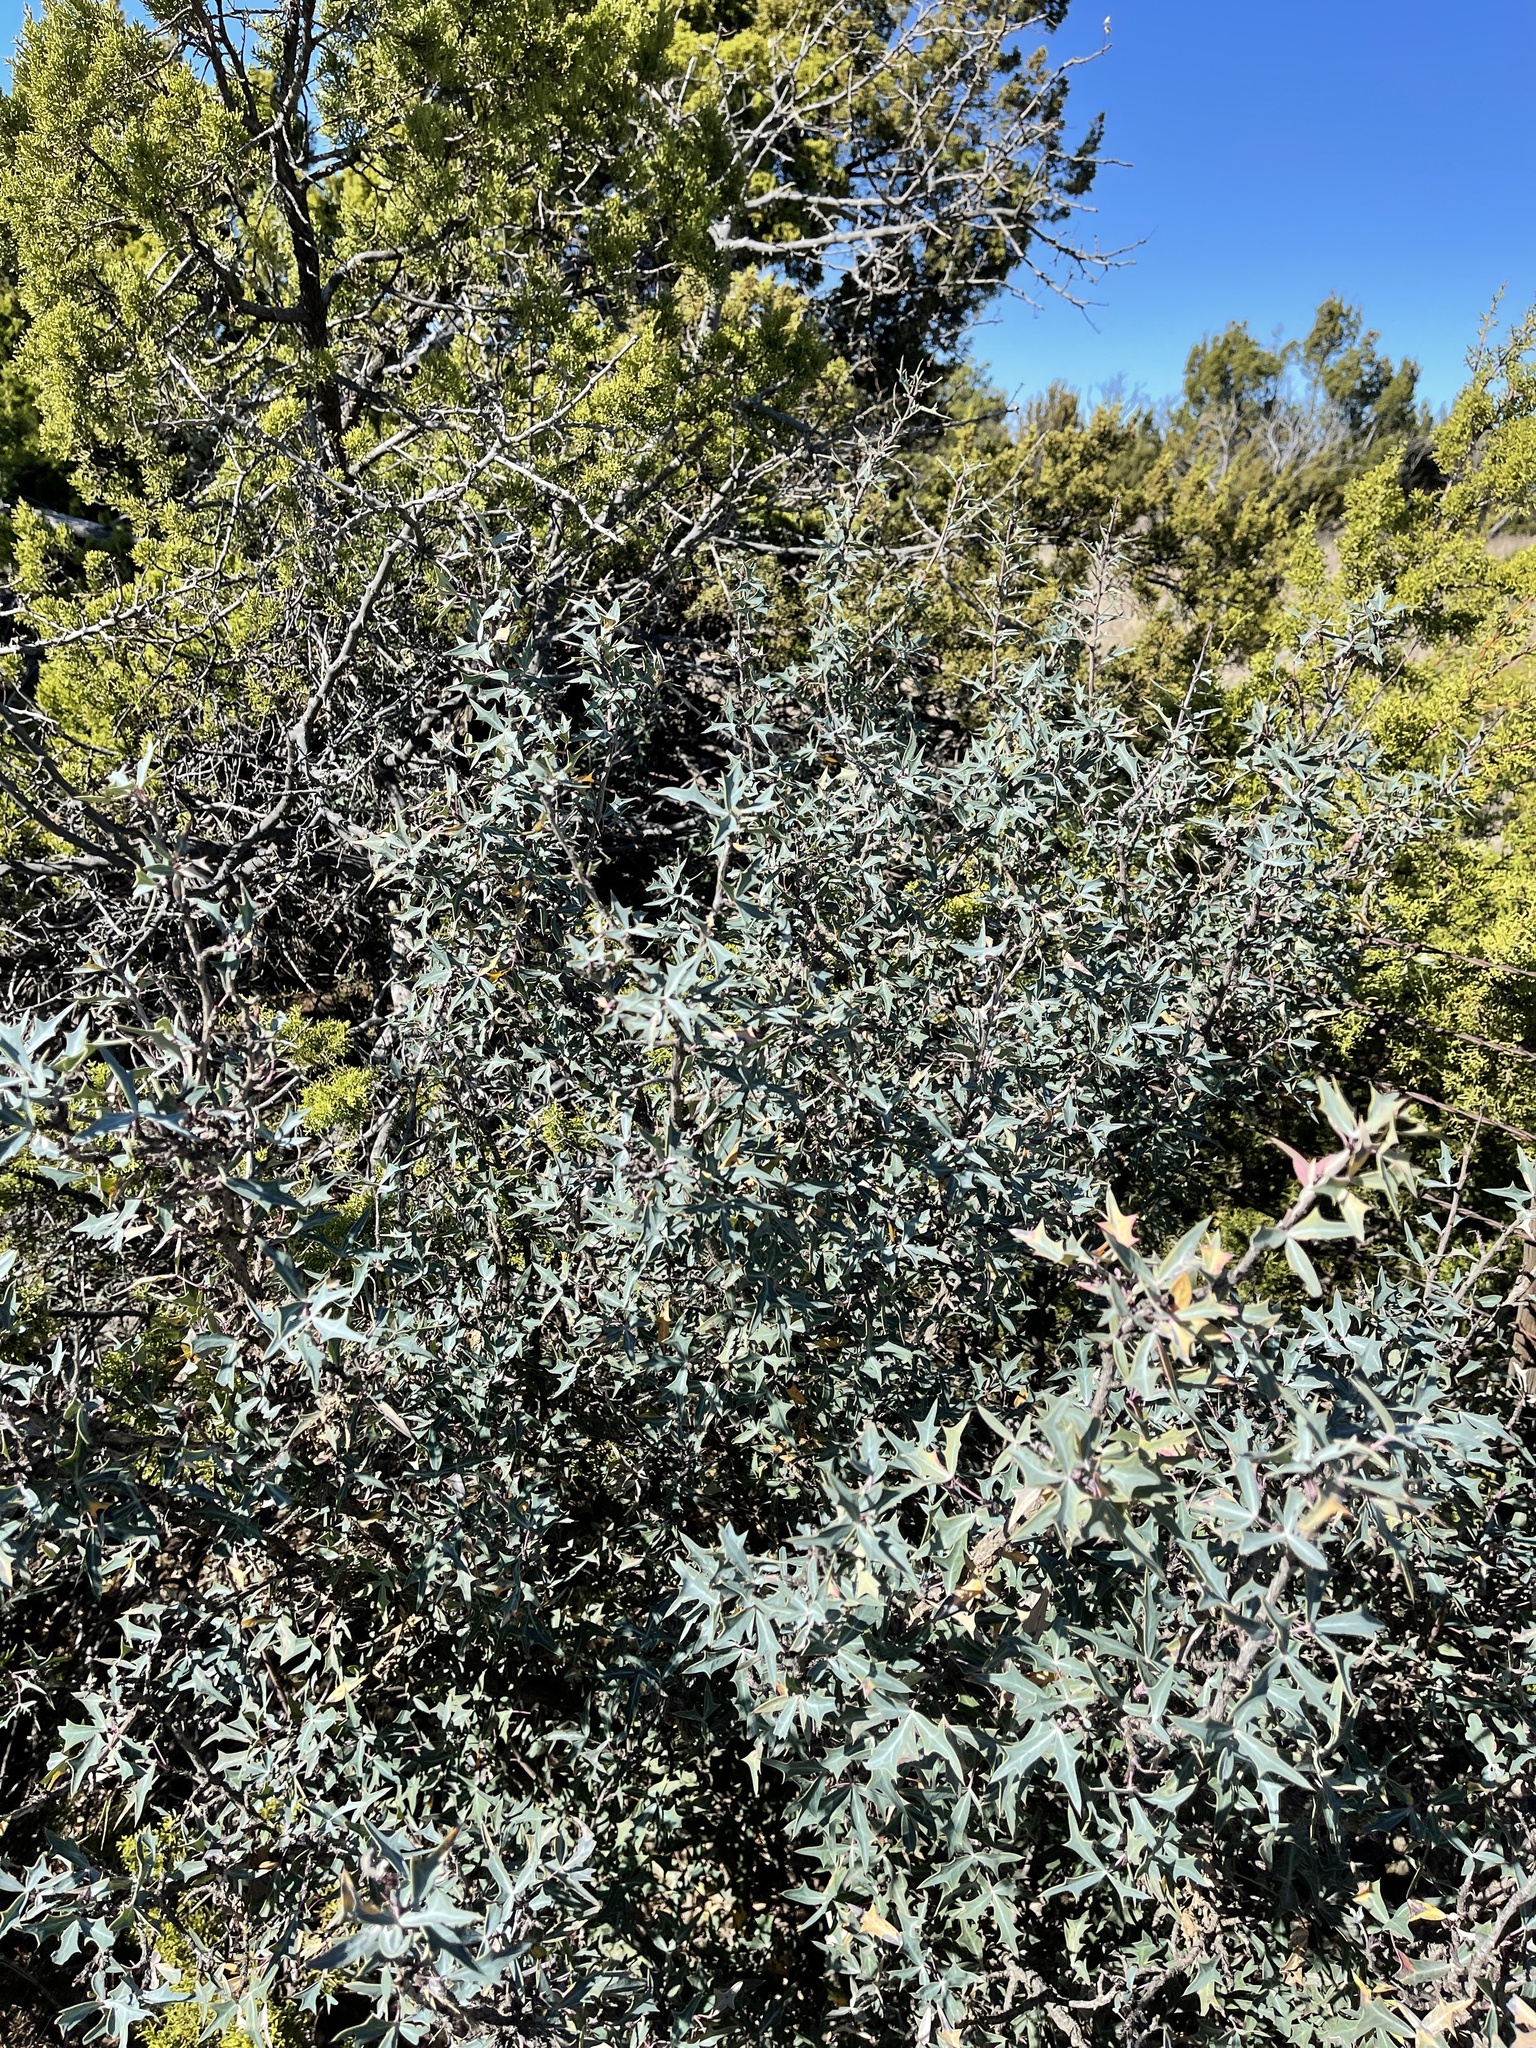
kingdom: Plantae
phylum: Tracheophyta
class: Magnoliopsida
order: Ranunculales
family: Berberidaceae
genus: Alloberberis
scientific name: Alloberberis trifoliolata
